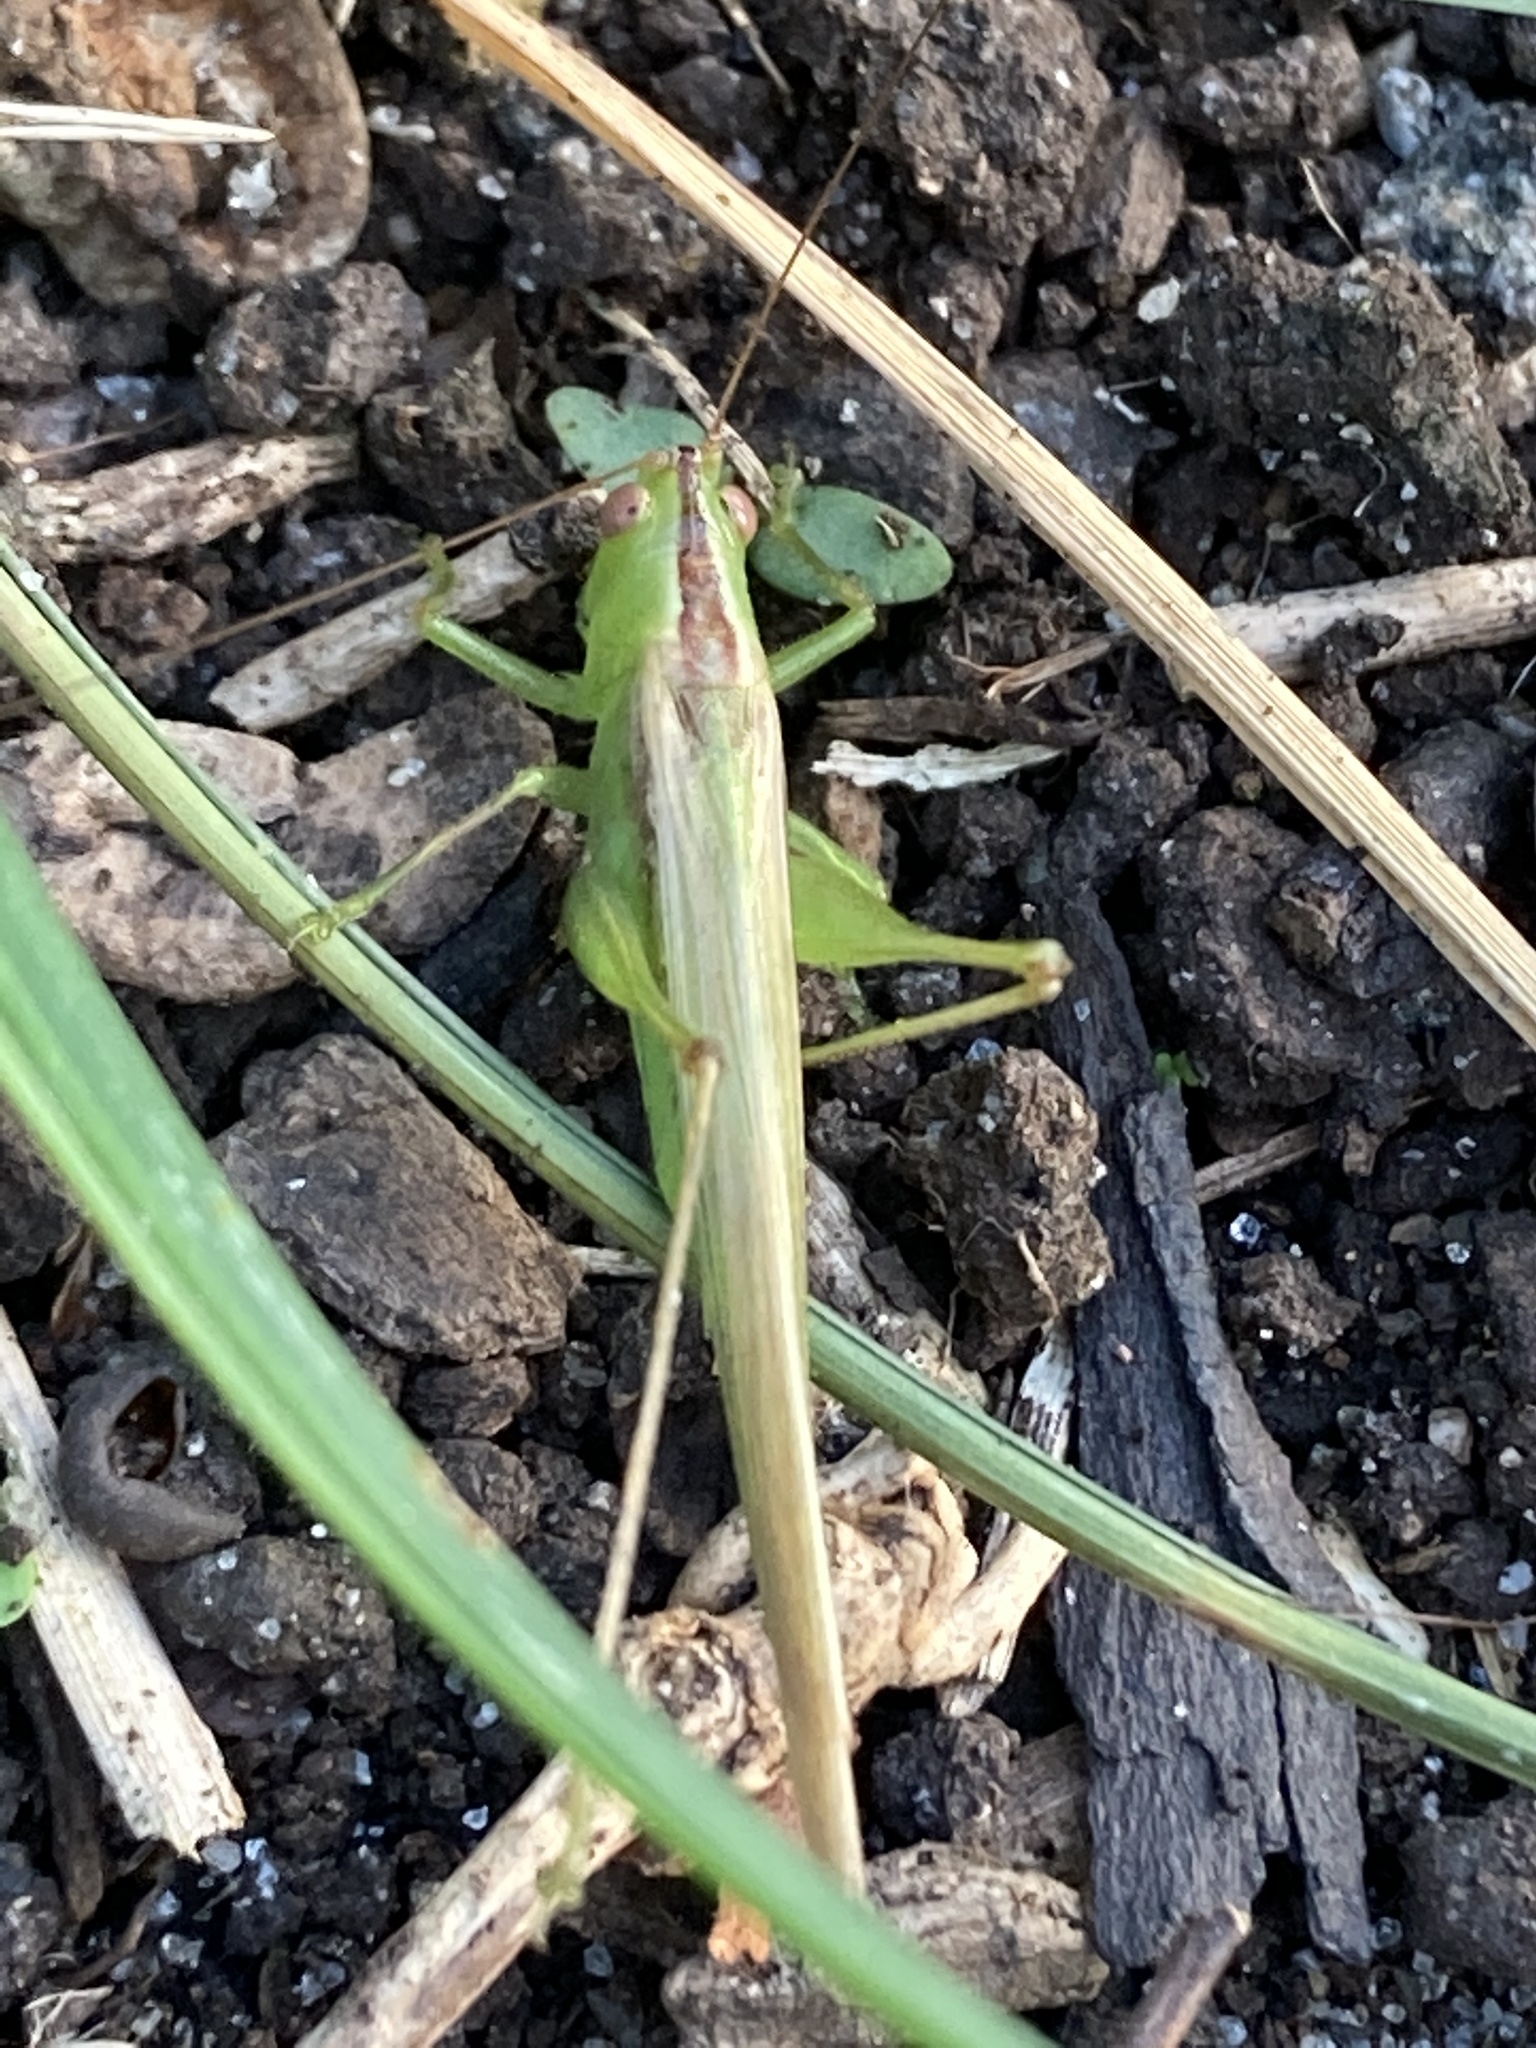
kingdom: Animalia
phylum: Arthropoda
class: Insecta
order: Orthoptera
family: Tettigoniidae
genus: Conocephalus
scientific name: Conocephalus fasciatus
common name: Slender meadow katydid
